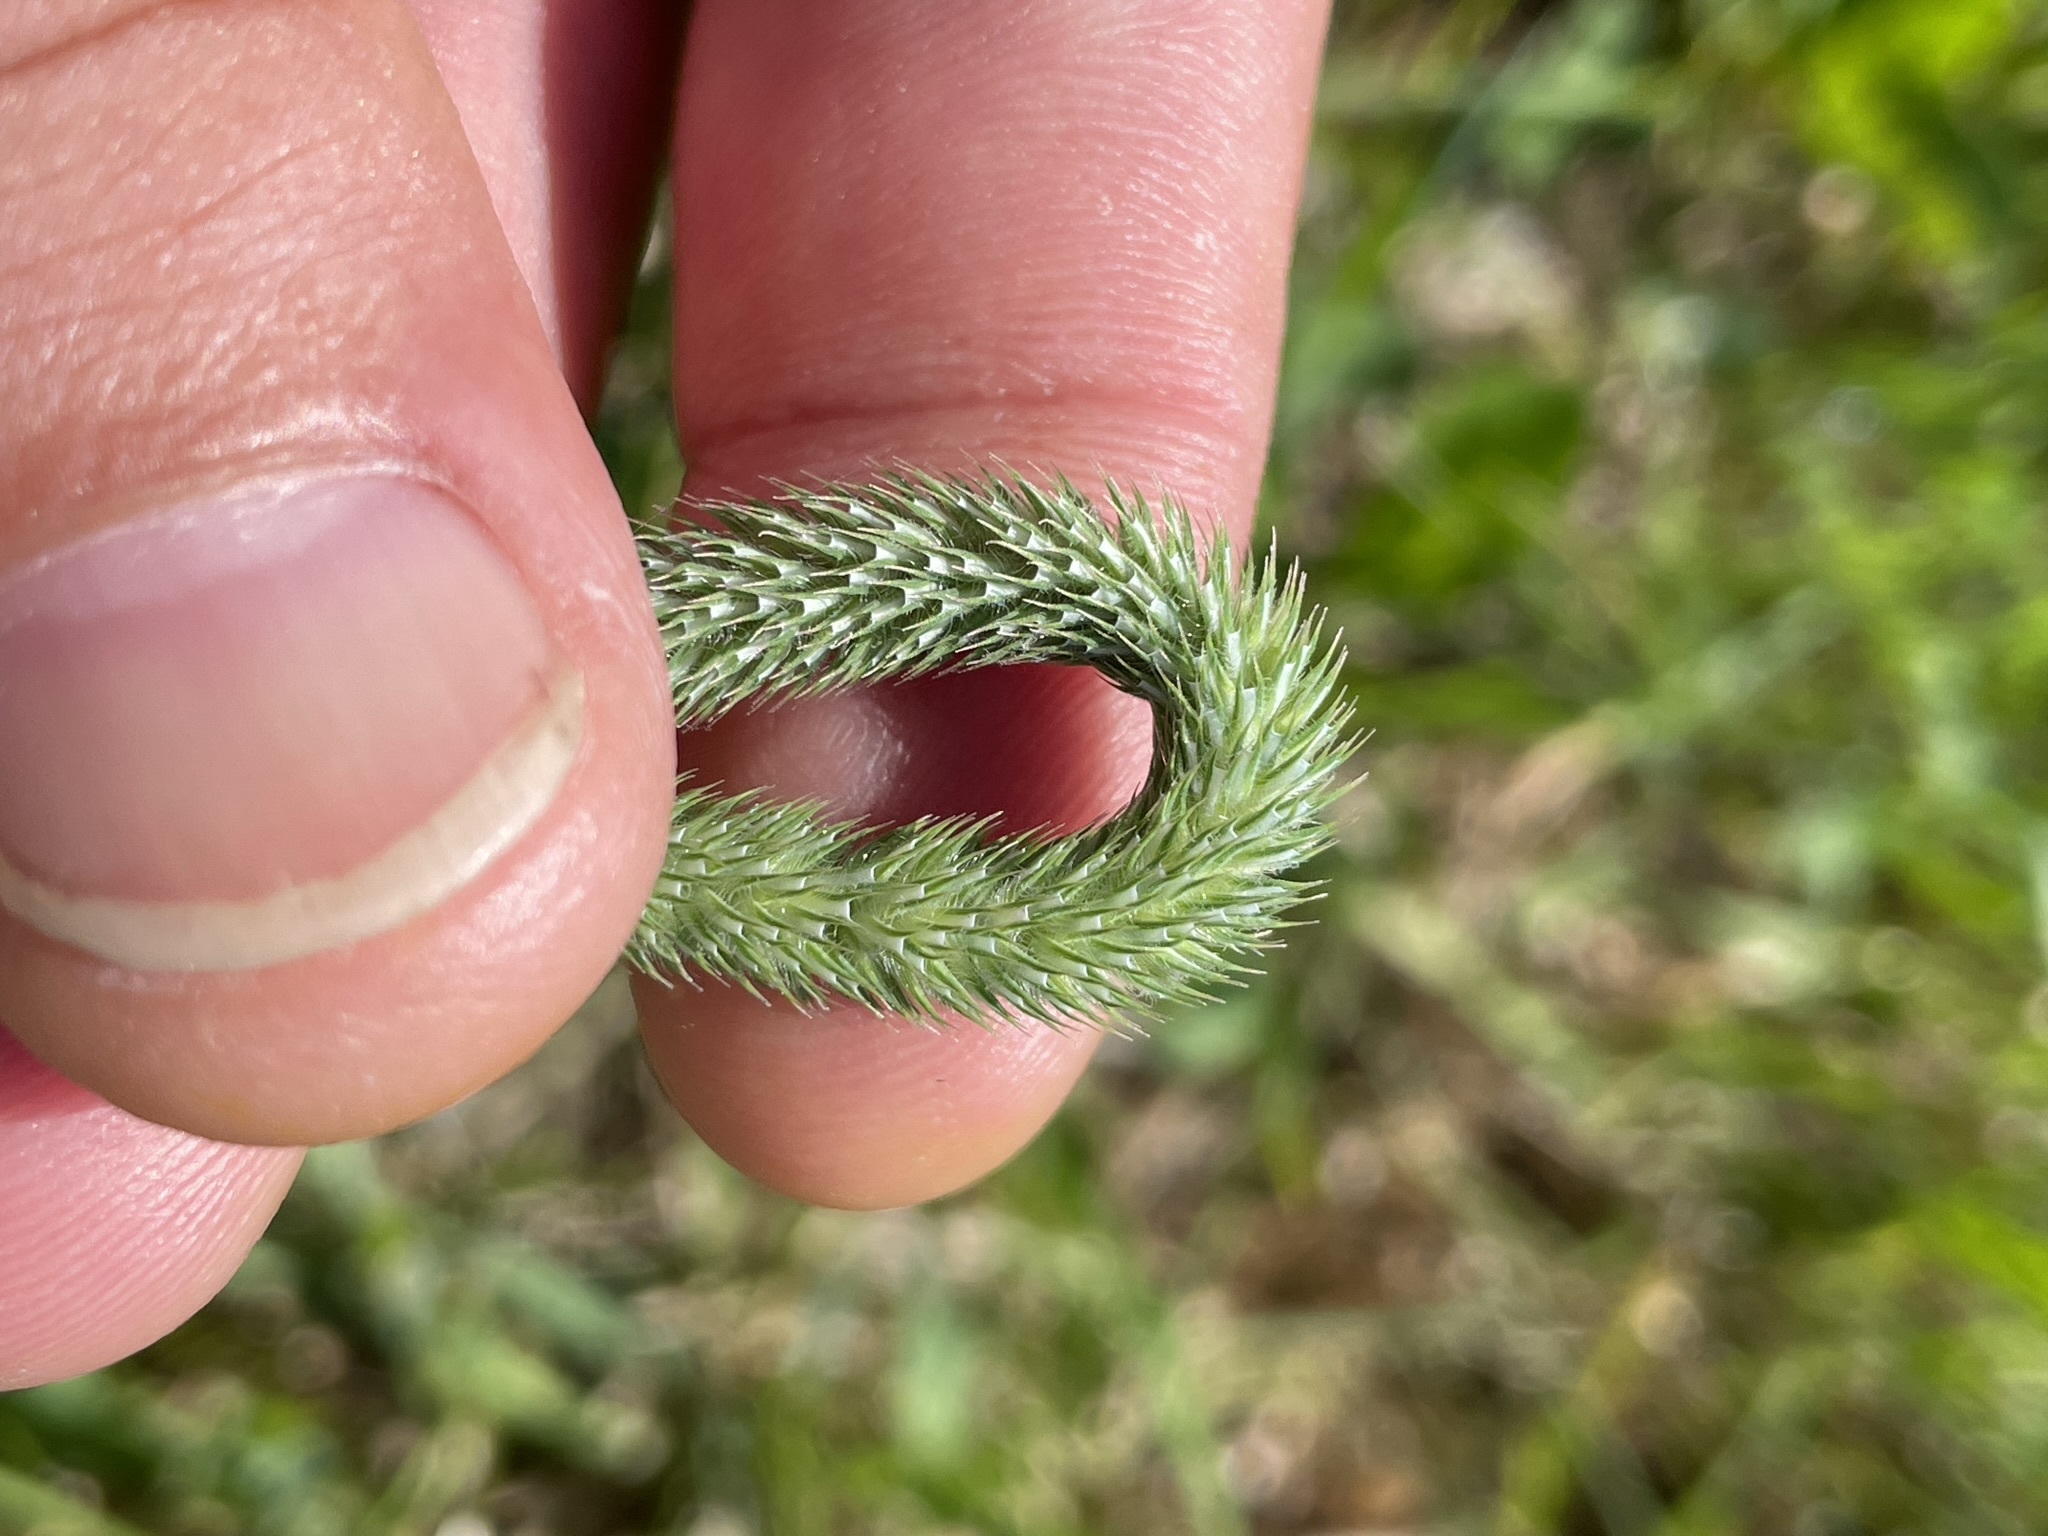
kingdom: Plantae
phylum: Tracheophyta
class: Liliopsida
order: Poales
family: Poaceae
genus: Phleum
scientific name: Phleum pratense
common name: Timothy grass
